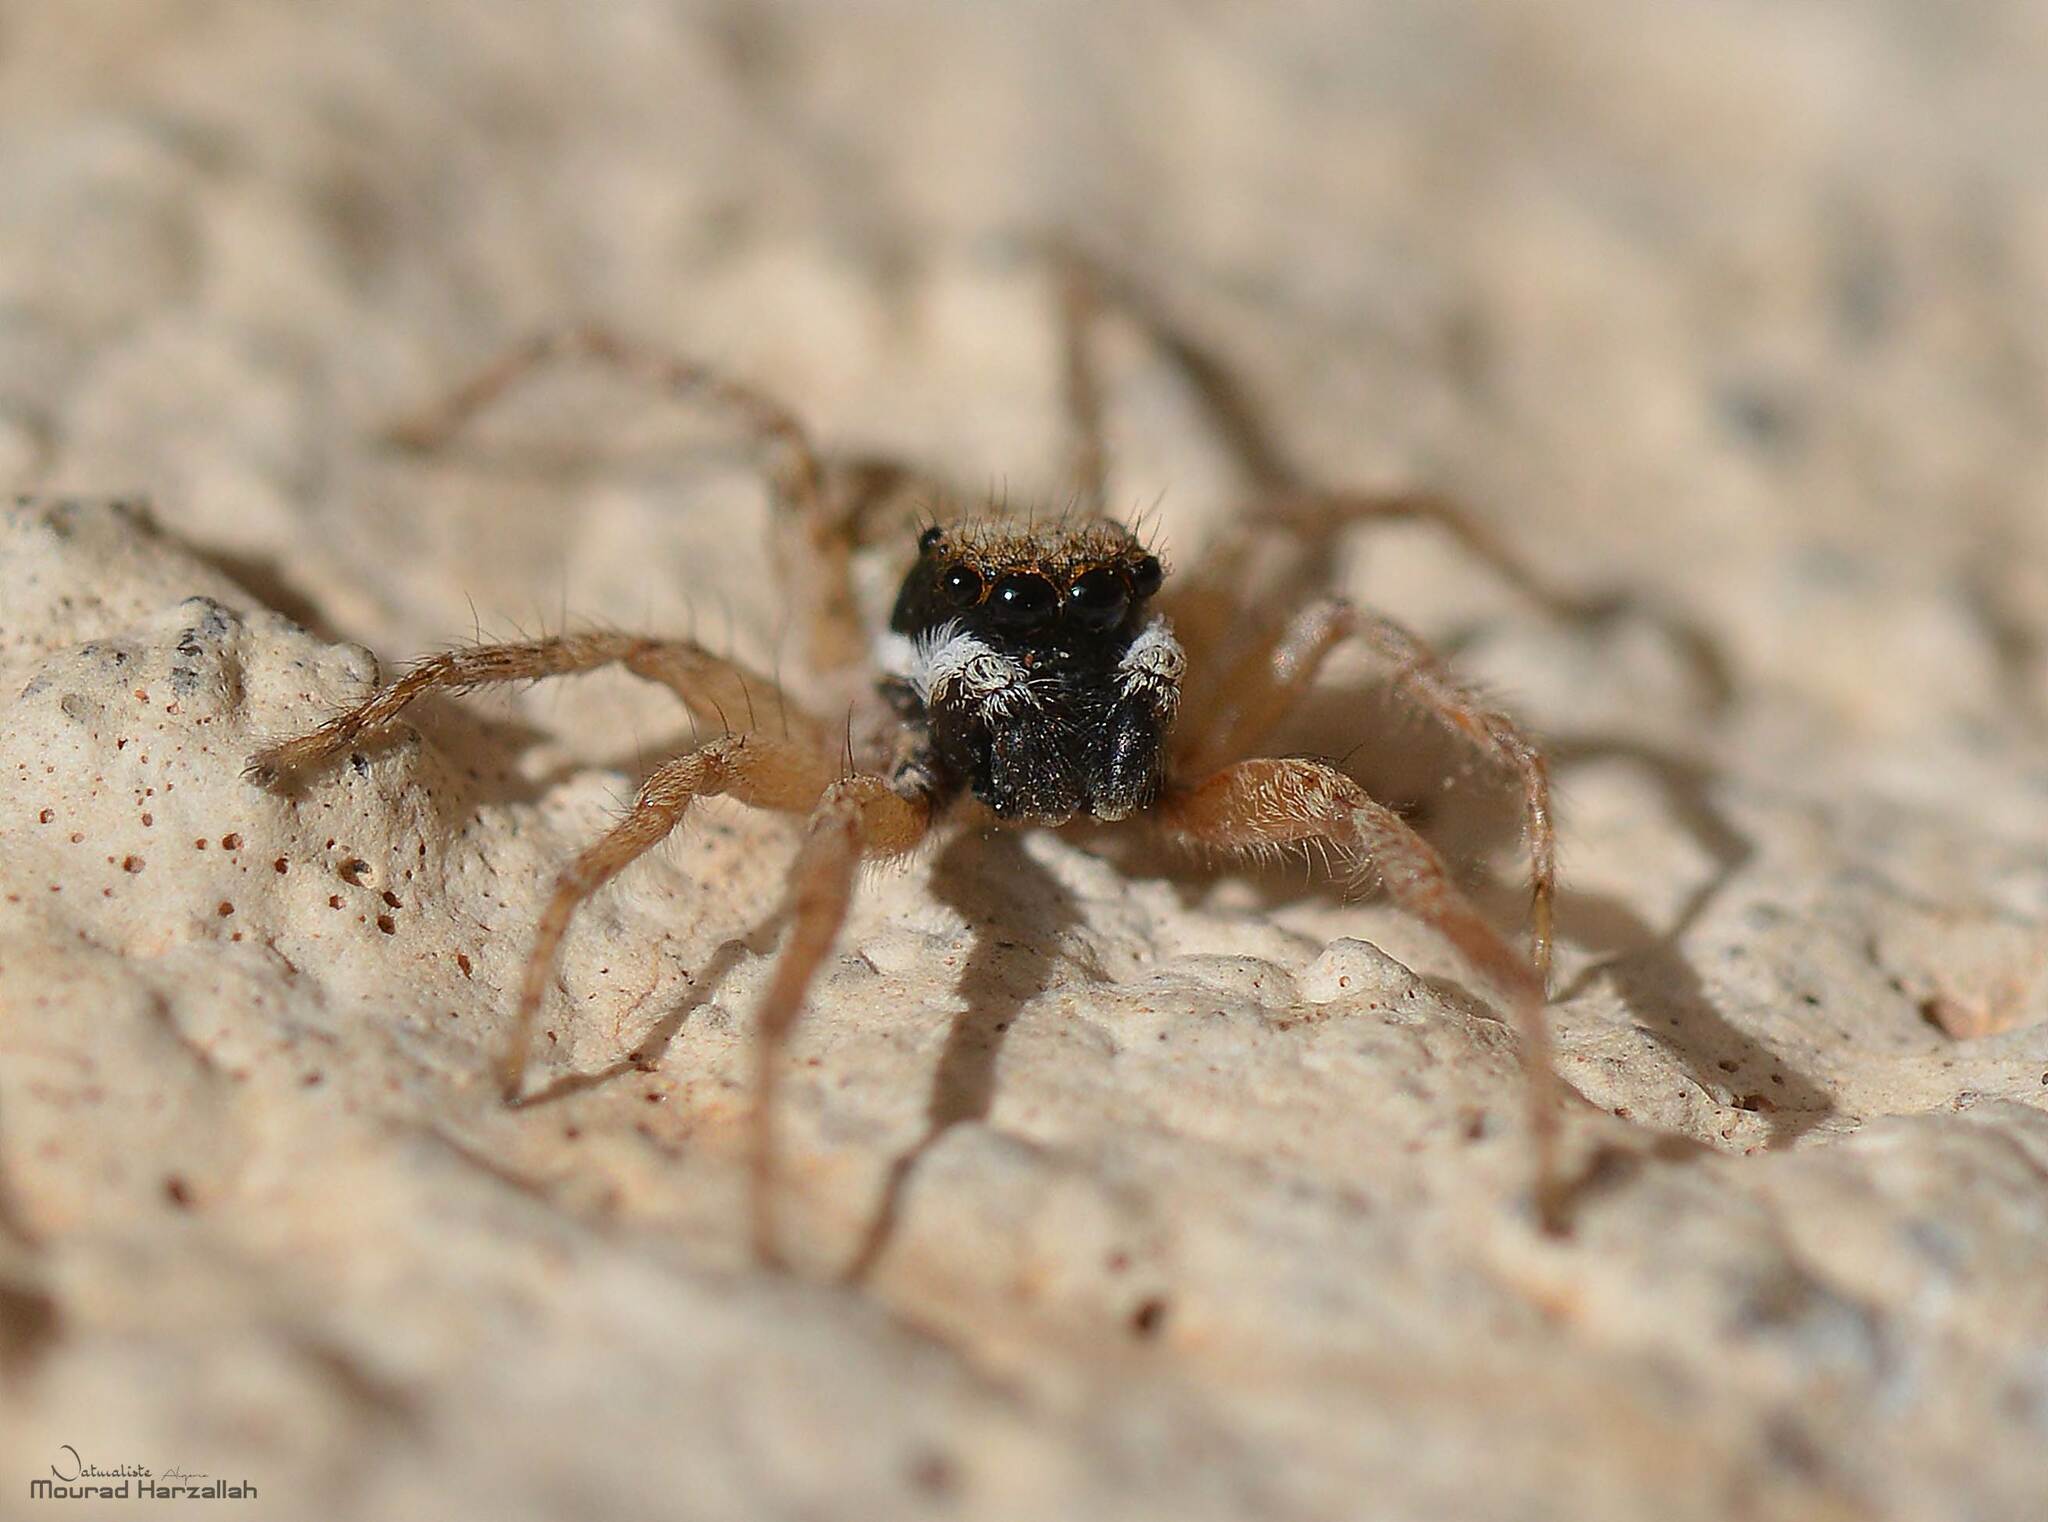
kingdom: Animalia
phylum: Arthropoda
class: Arachnida
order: Araneae
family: Salticidae
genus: Menemerus
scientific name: Menemerus semilimbatus
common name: Jumping spider
